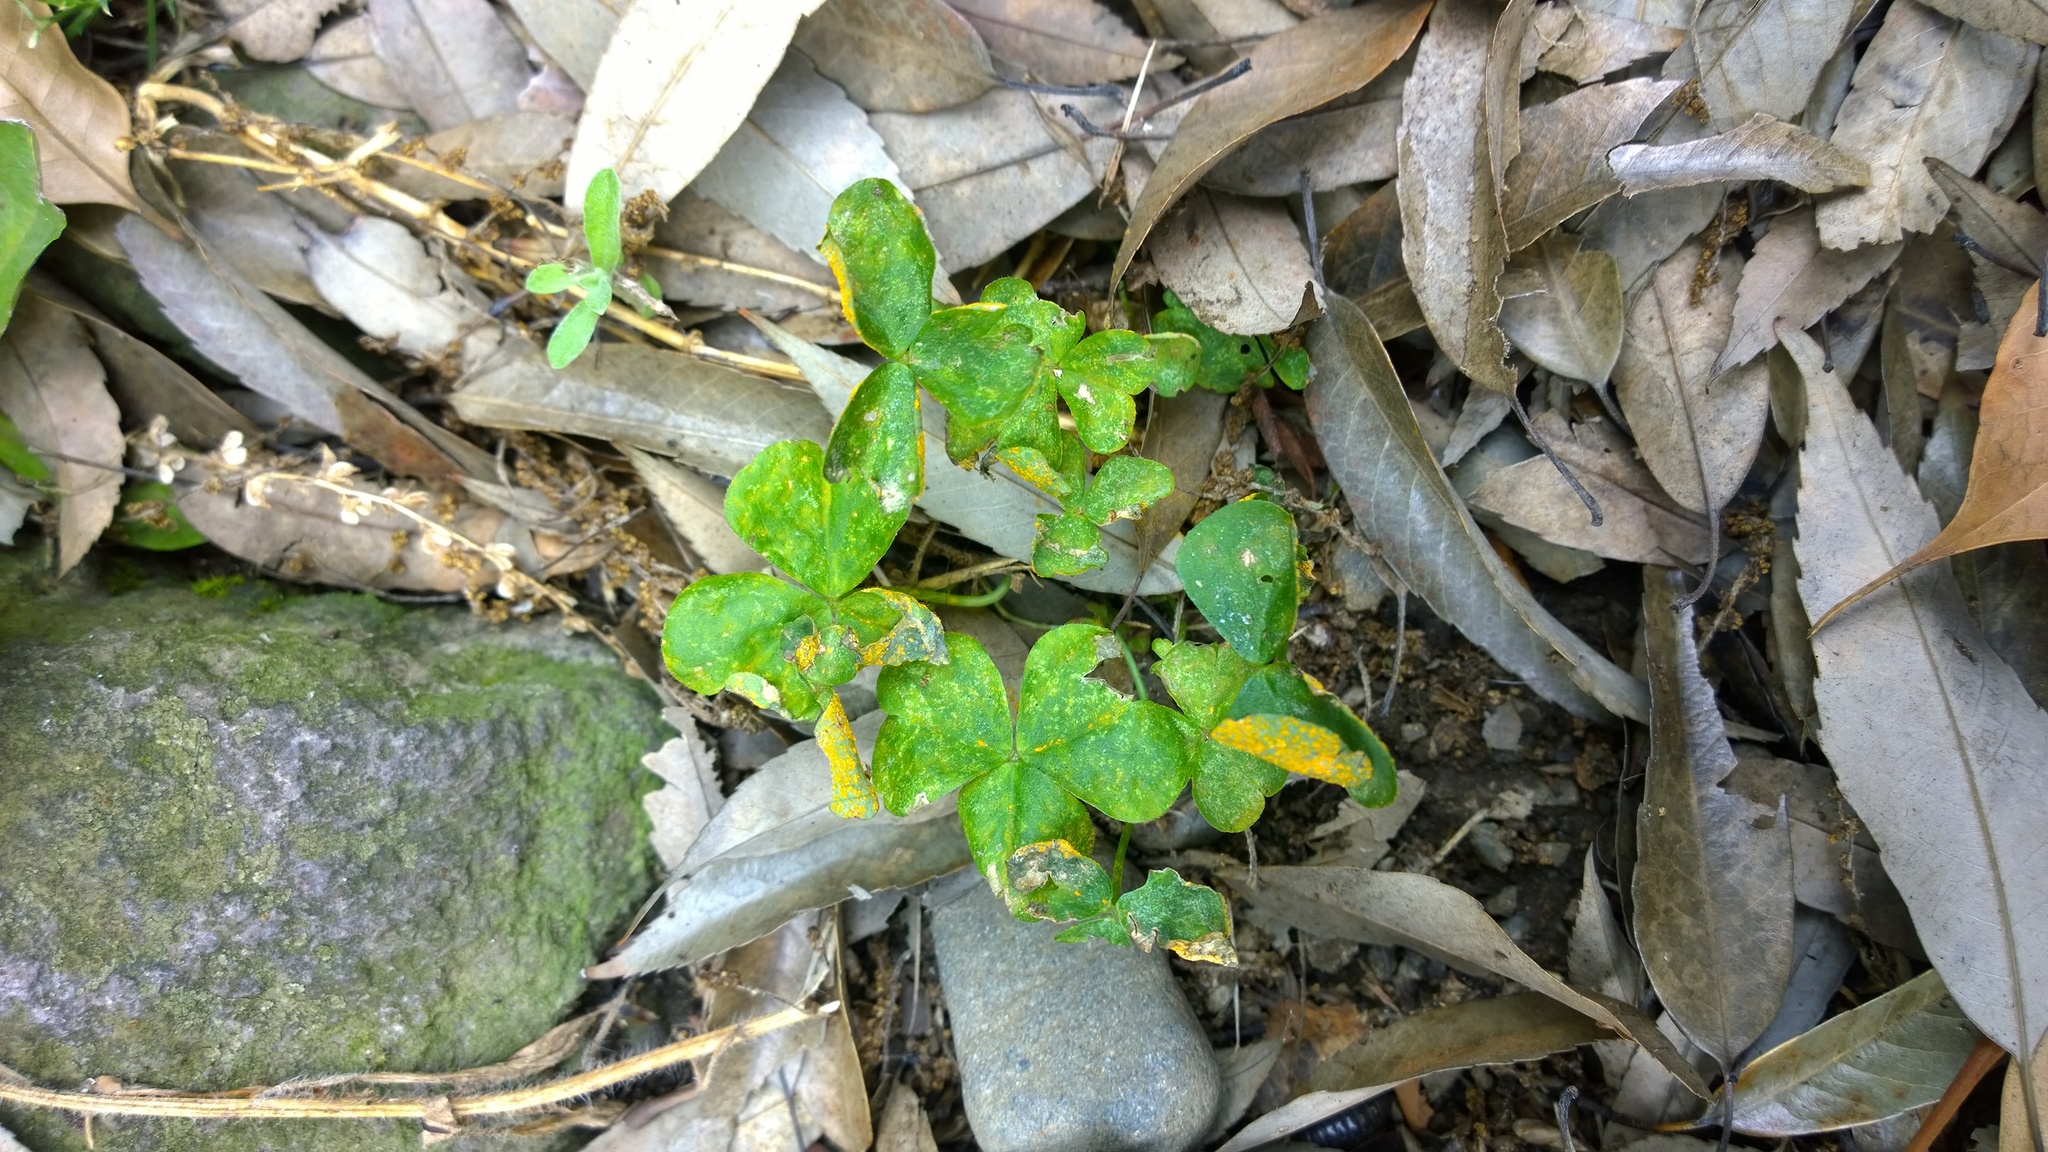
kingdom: Fungi
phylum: Basidiomycota
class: Pucciniomycetes
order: Pucciniales
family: Pucciniaceae
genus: Puccinia
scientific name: Puccinia oxalidis
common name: Oxalis rust
